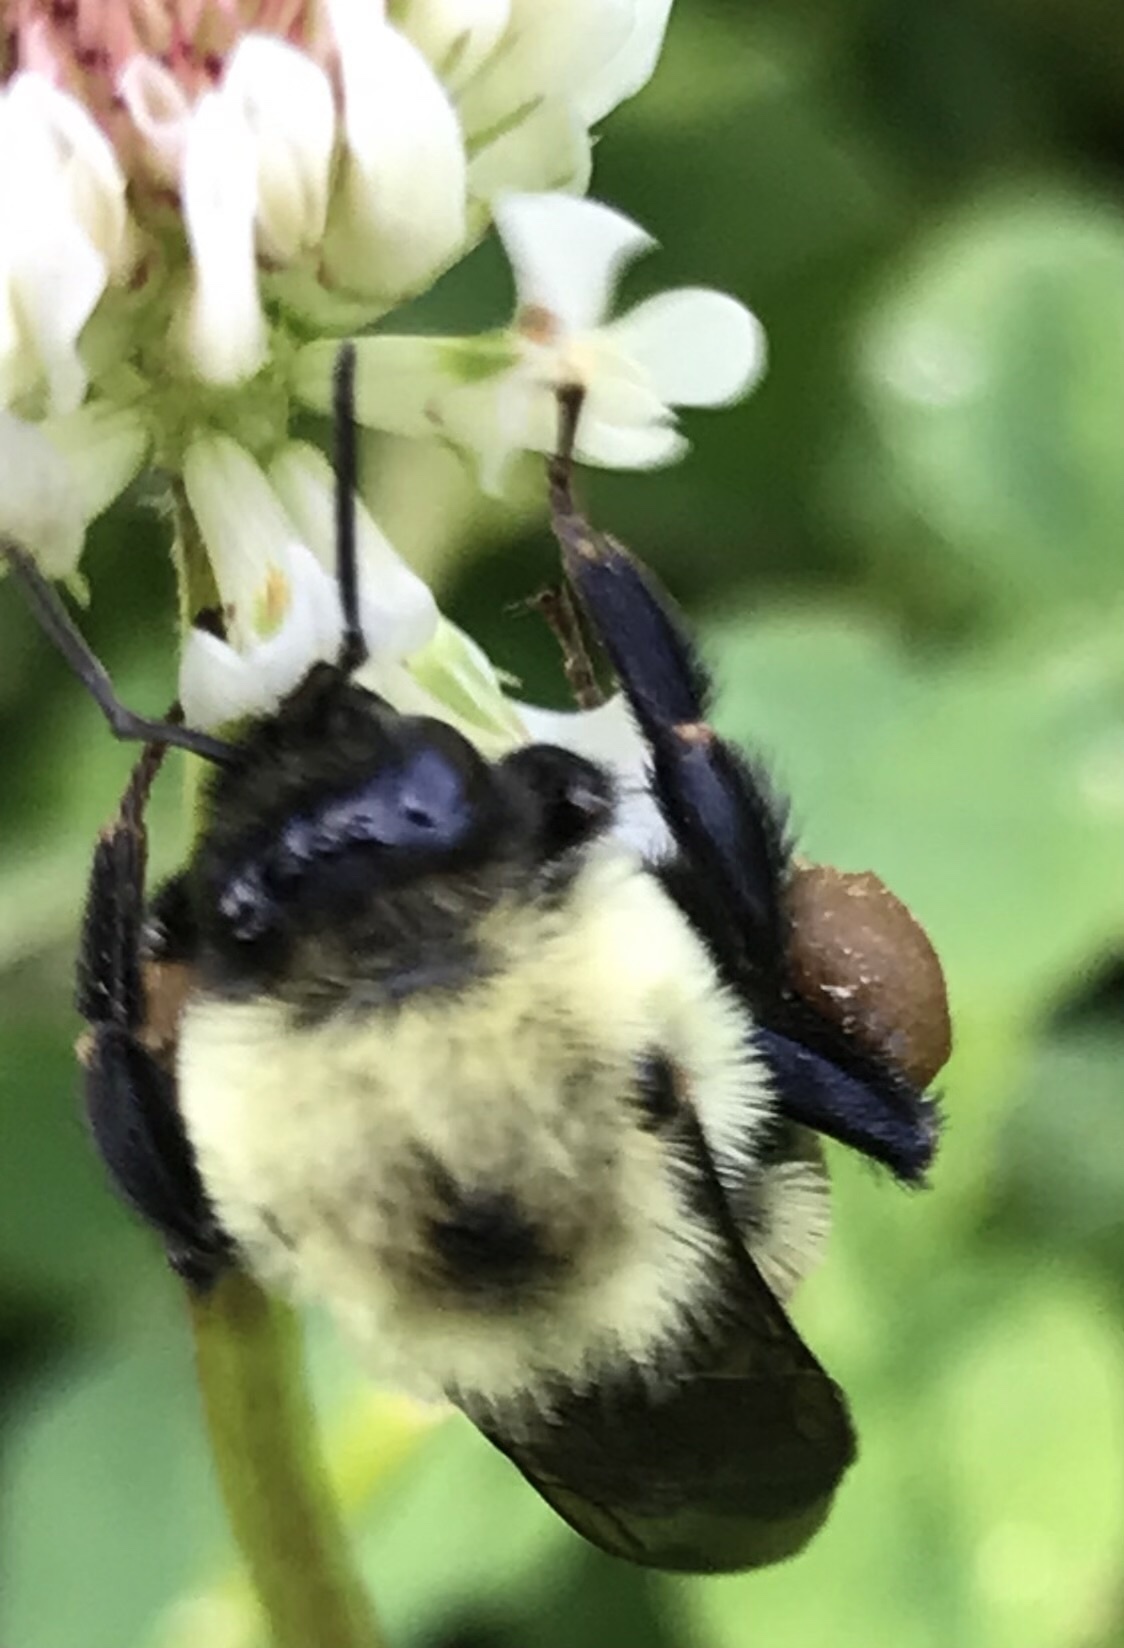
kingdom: Animalia
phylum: Arthropoda
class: Insecta
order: Hymenoptera
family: Apidae
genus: Bombus
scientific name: Bombus griseocollis
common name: Brown-belted bumble bee
